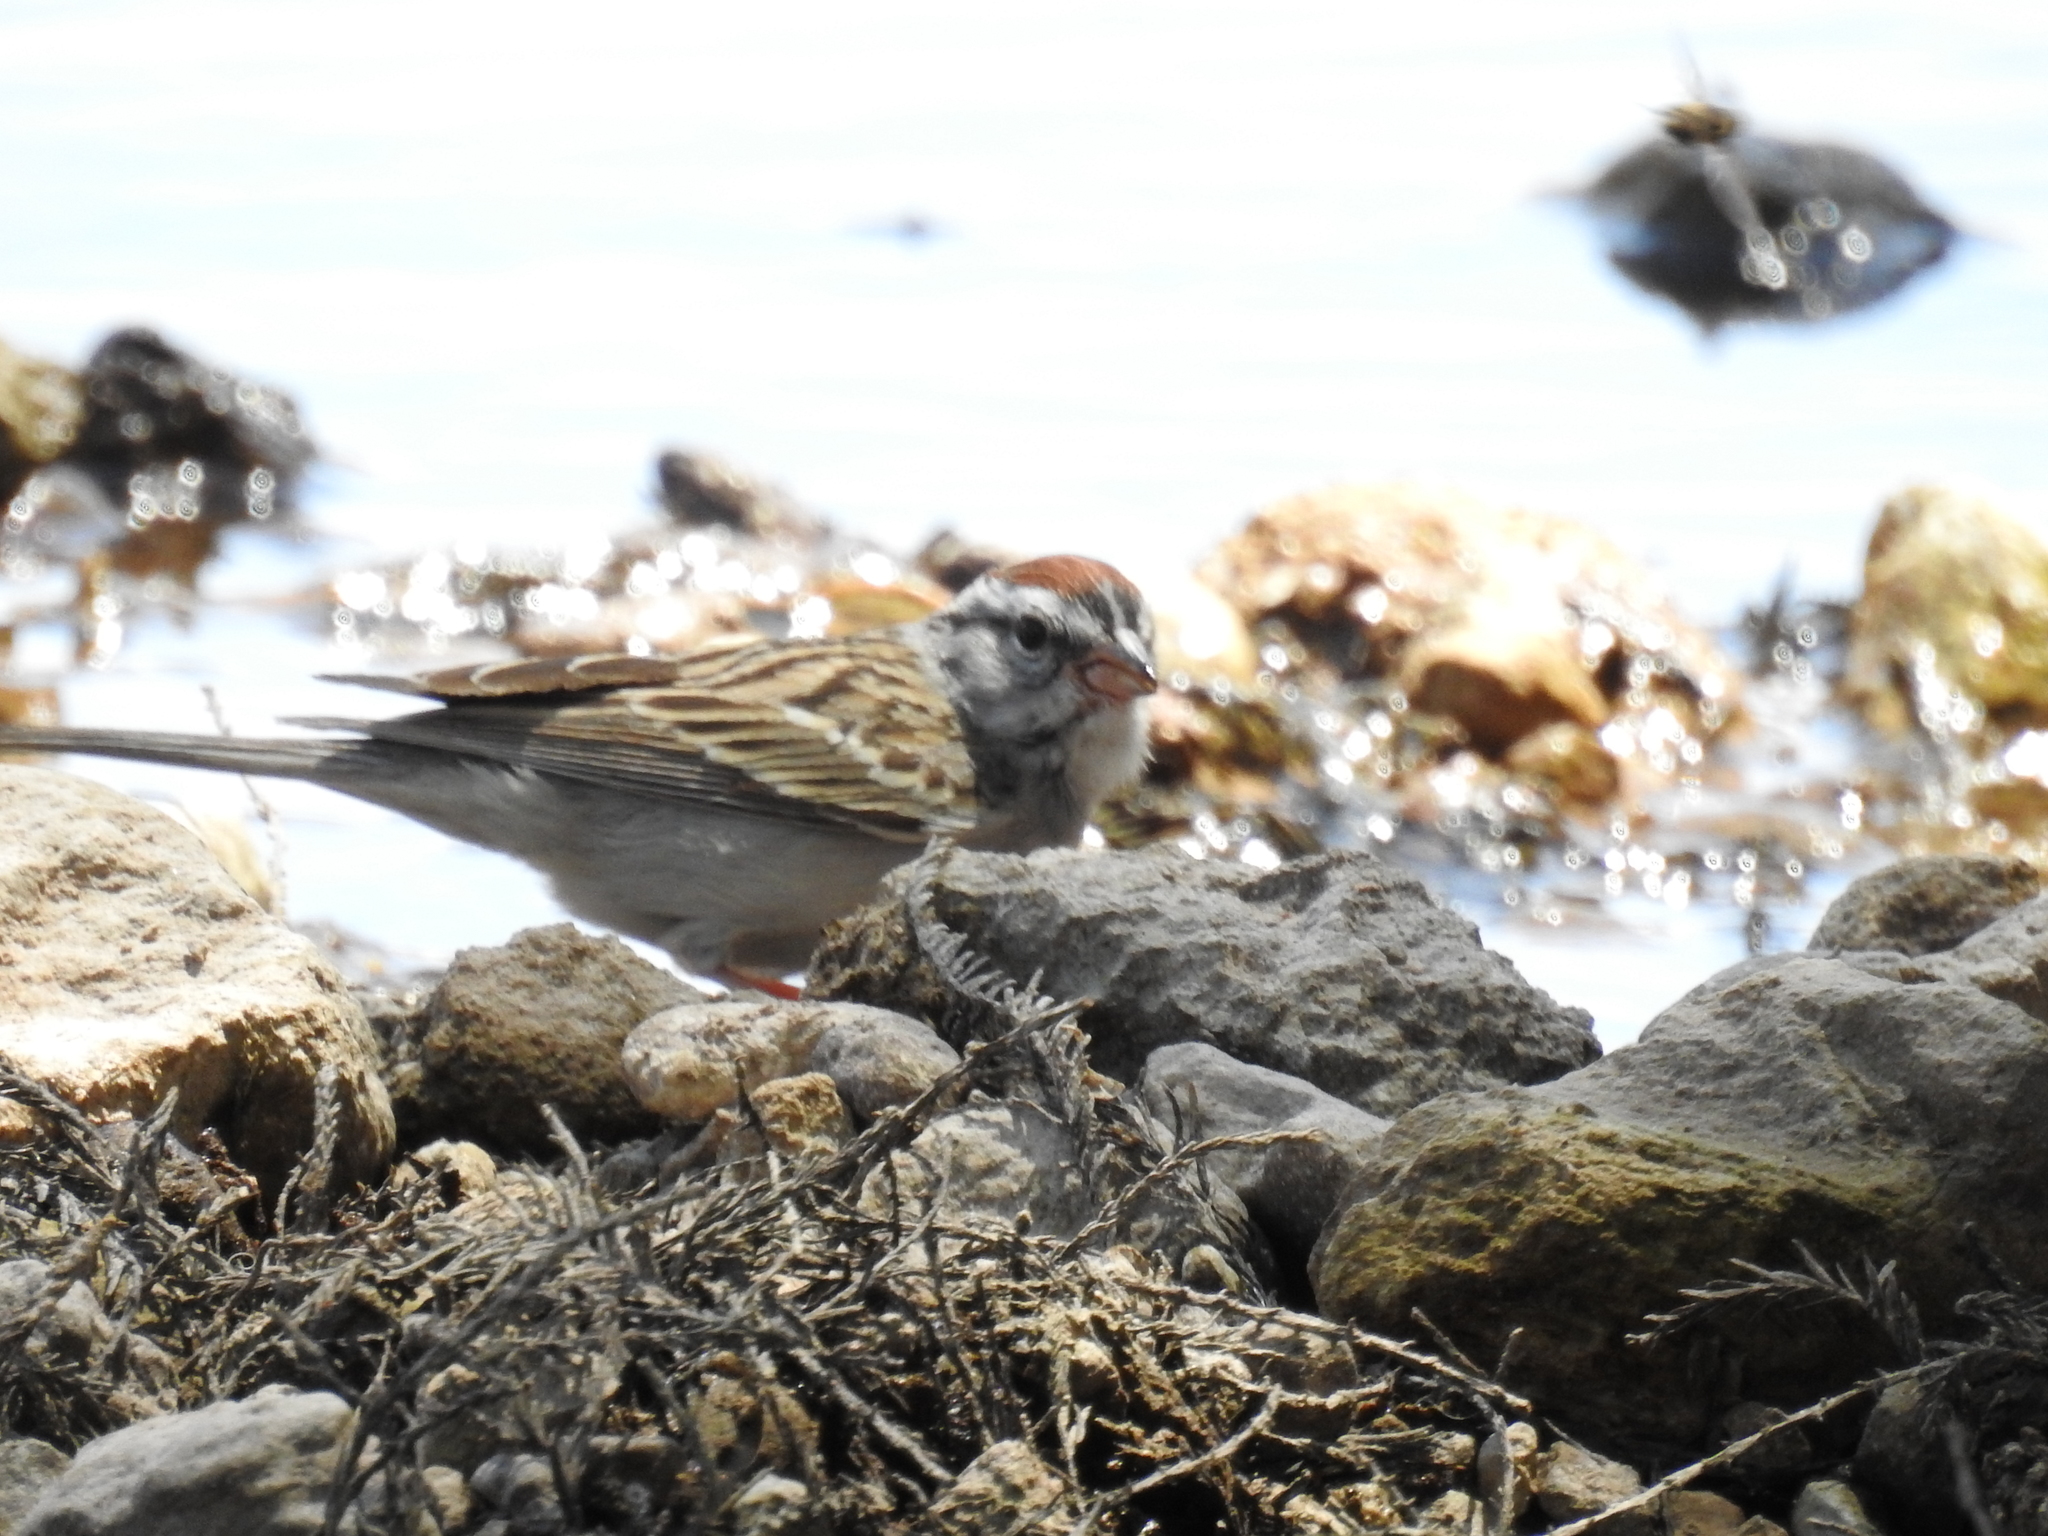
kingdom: Animalia
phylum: Chordata
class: Aves
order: Passeriformes
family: Passerellidae
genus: Spizella
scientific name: Spizella passerina
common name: Chipping sparrow
